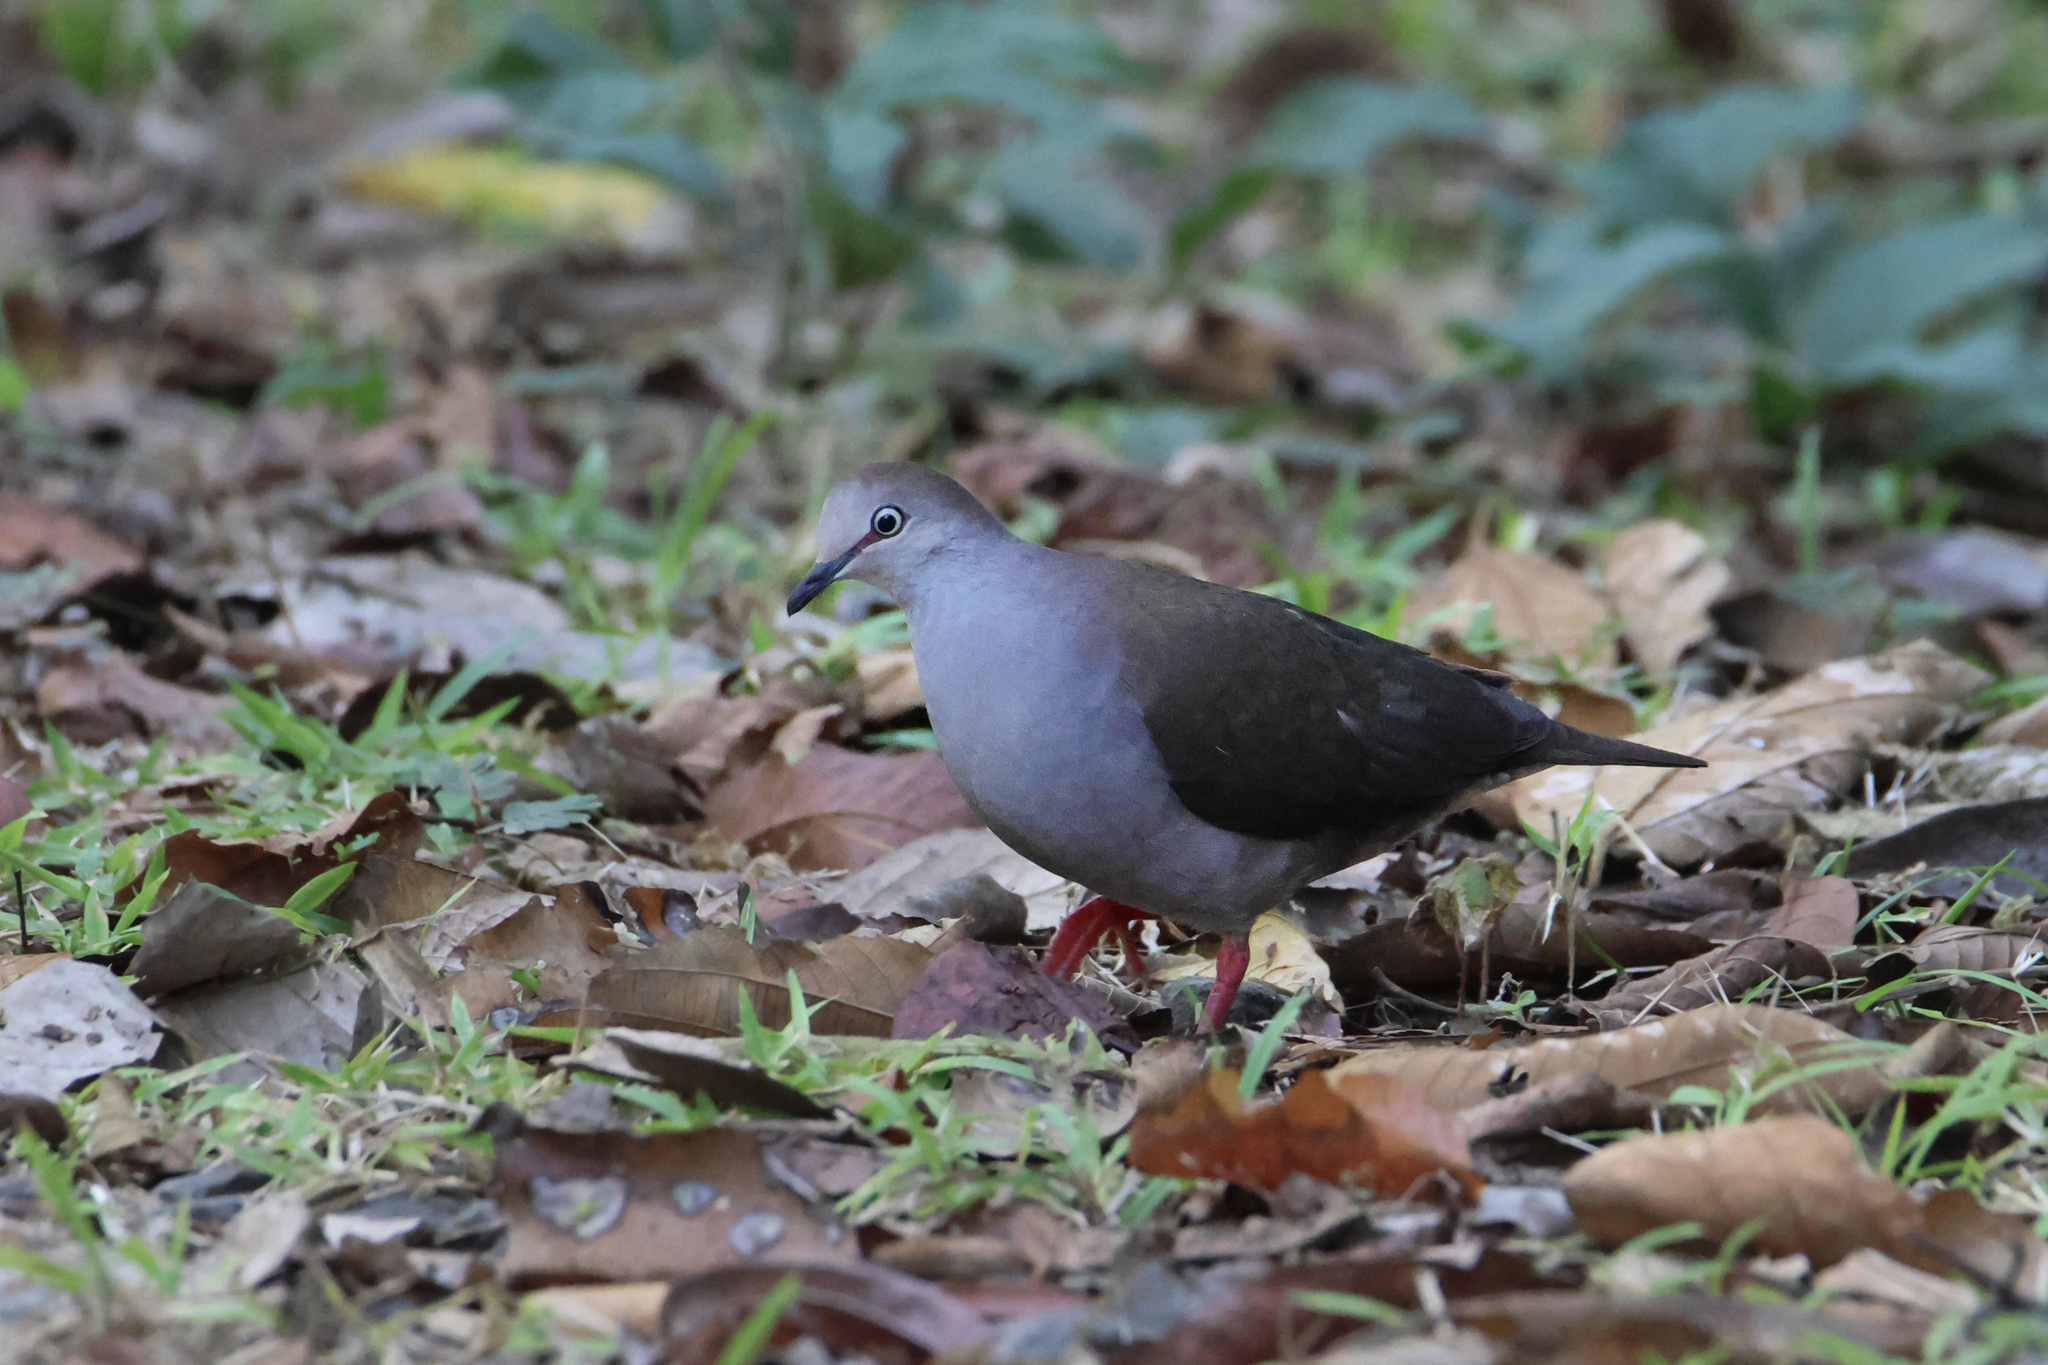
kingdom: Animalia
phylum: Chordata
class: Aves
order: Columbiformes
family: Columbidae
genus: Leptotila
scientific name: Leptotila cassinii
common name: Grey-chested dove
